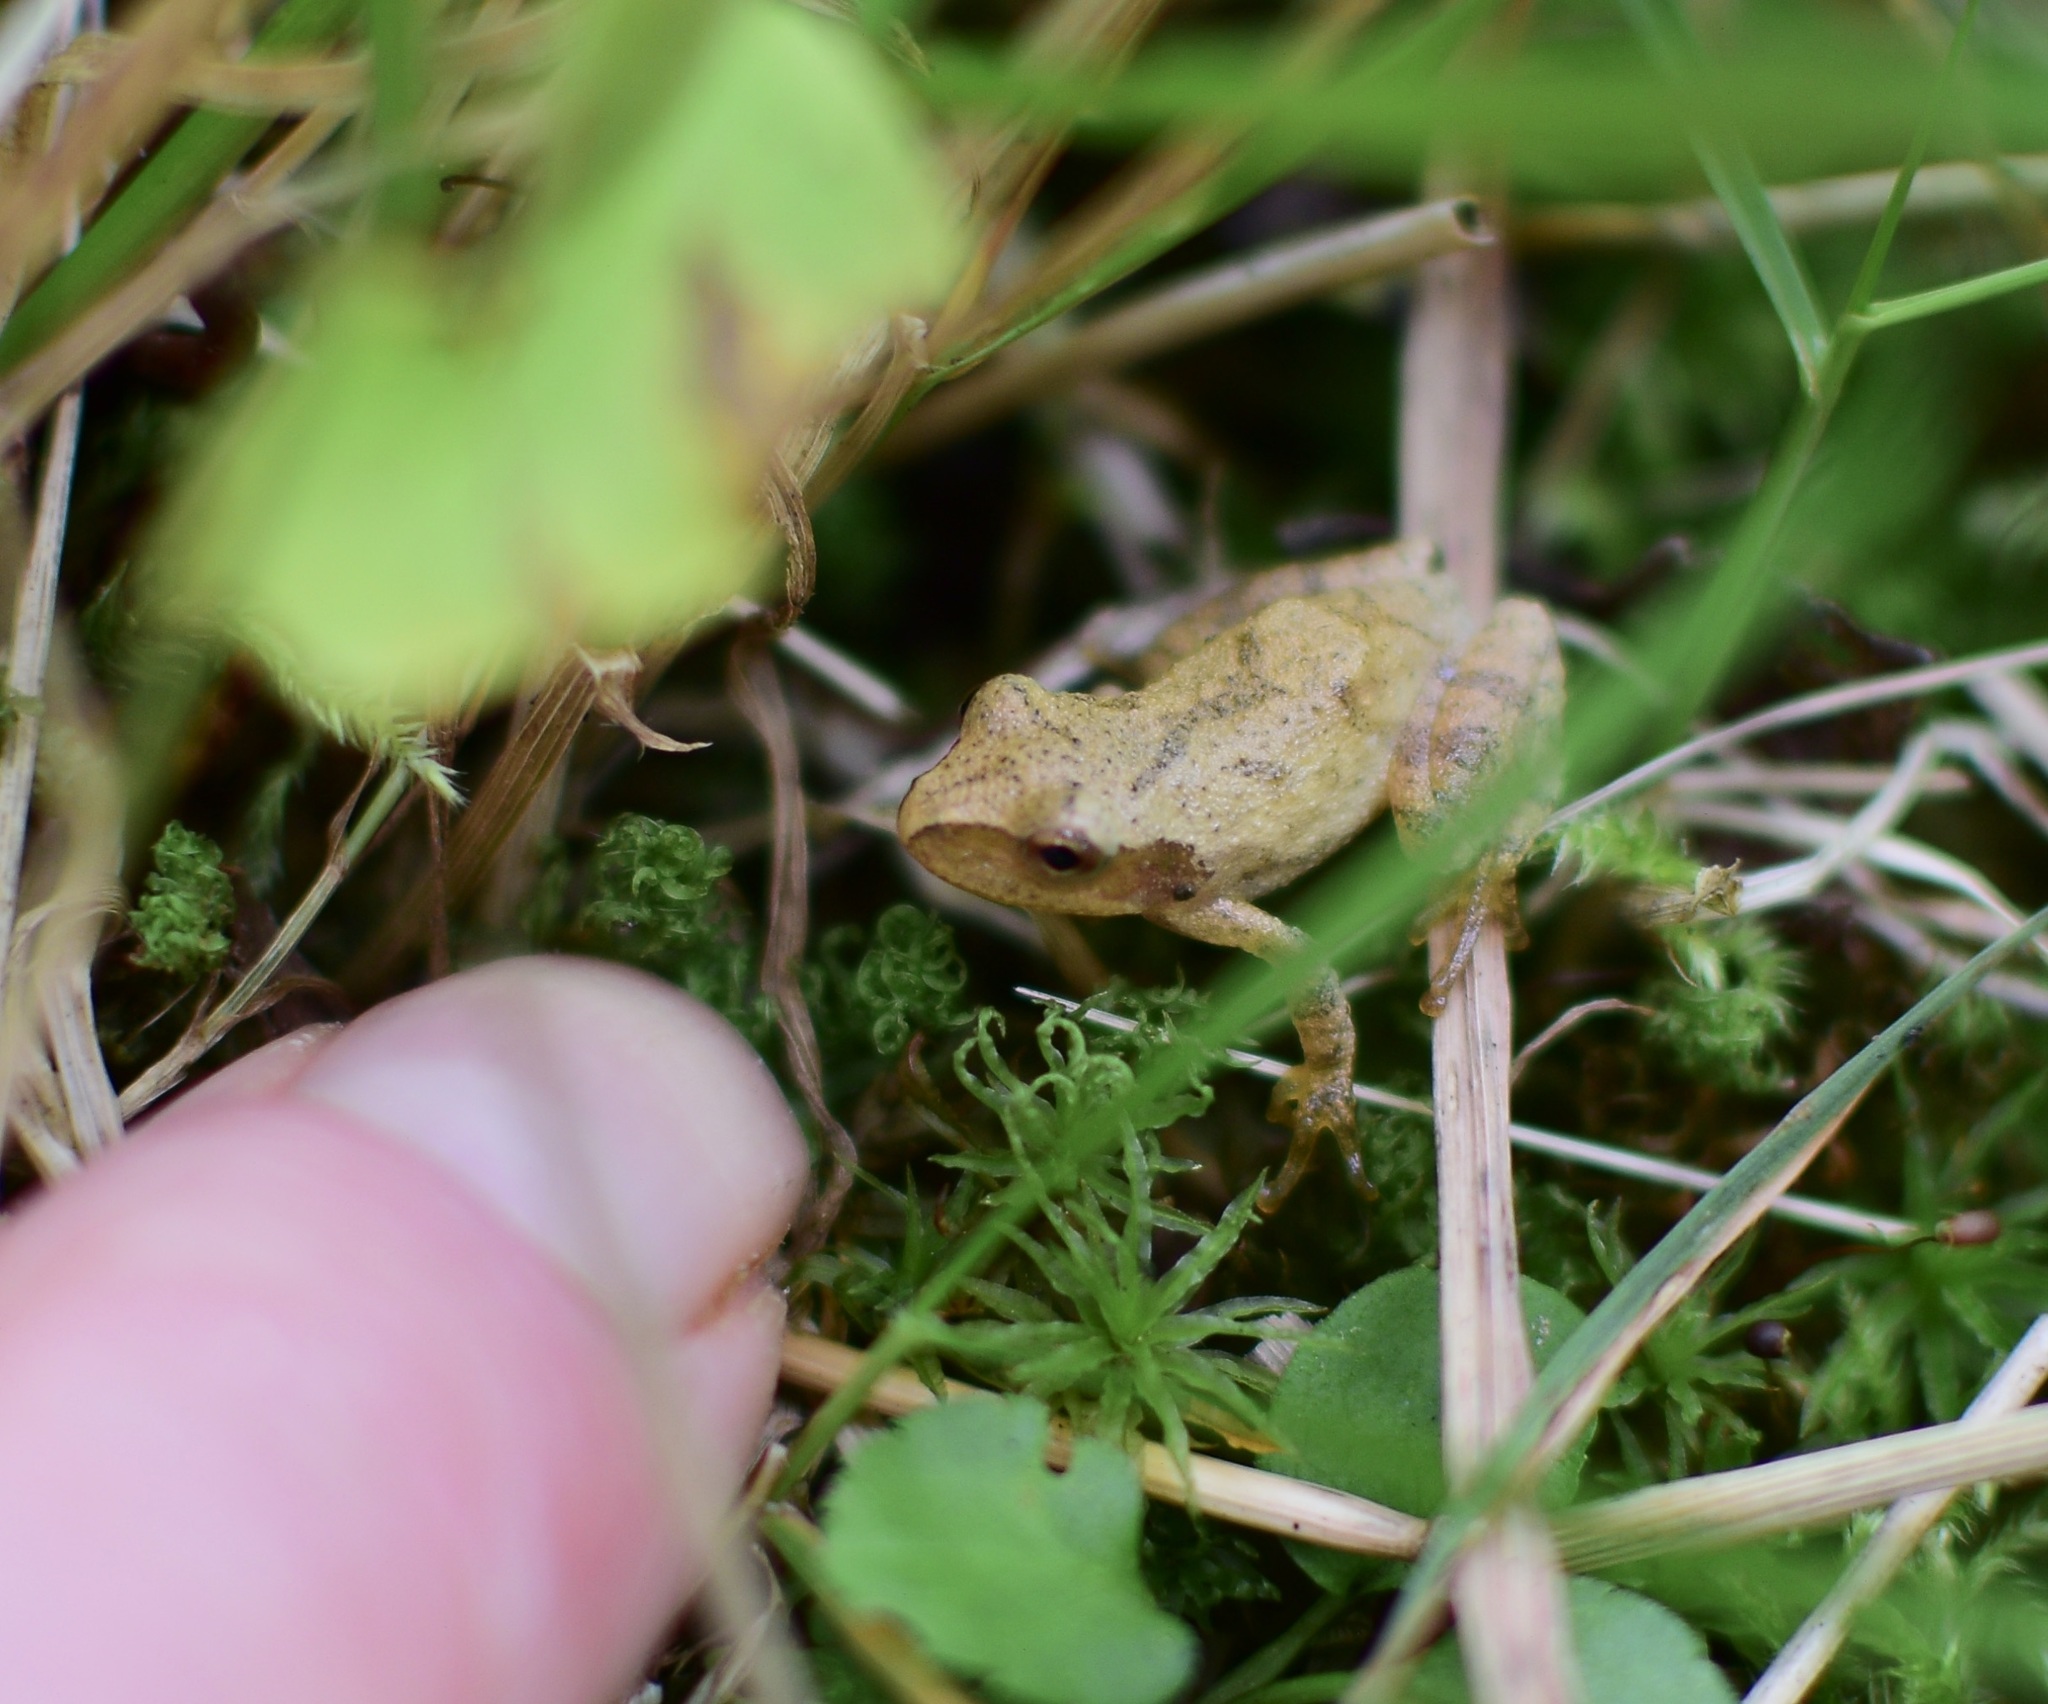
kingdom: Animalia
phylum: Chordata
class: Amphibia
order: Anura
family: Hylidae
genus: Pseudacris
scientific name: Pseudacris crucifer
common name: Spring peeper
